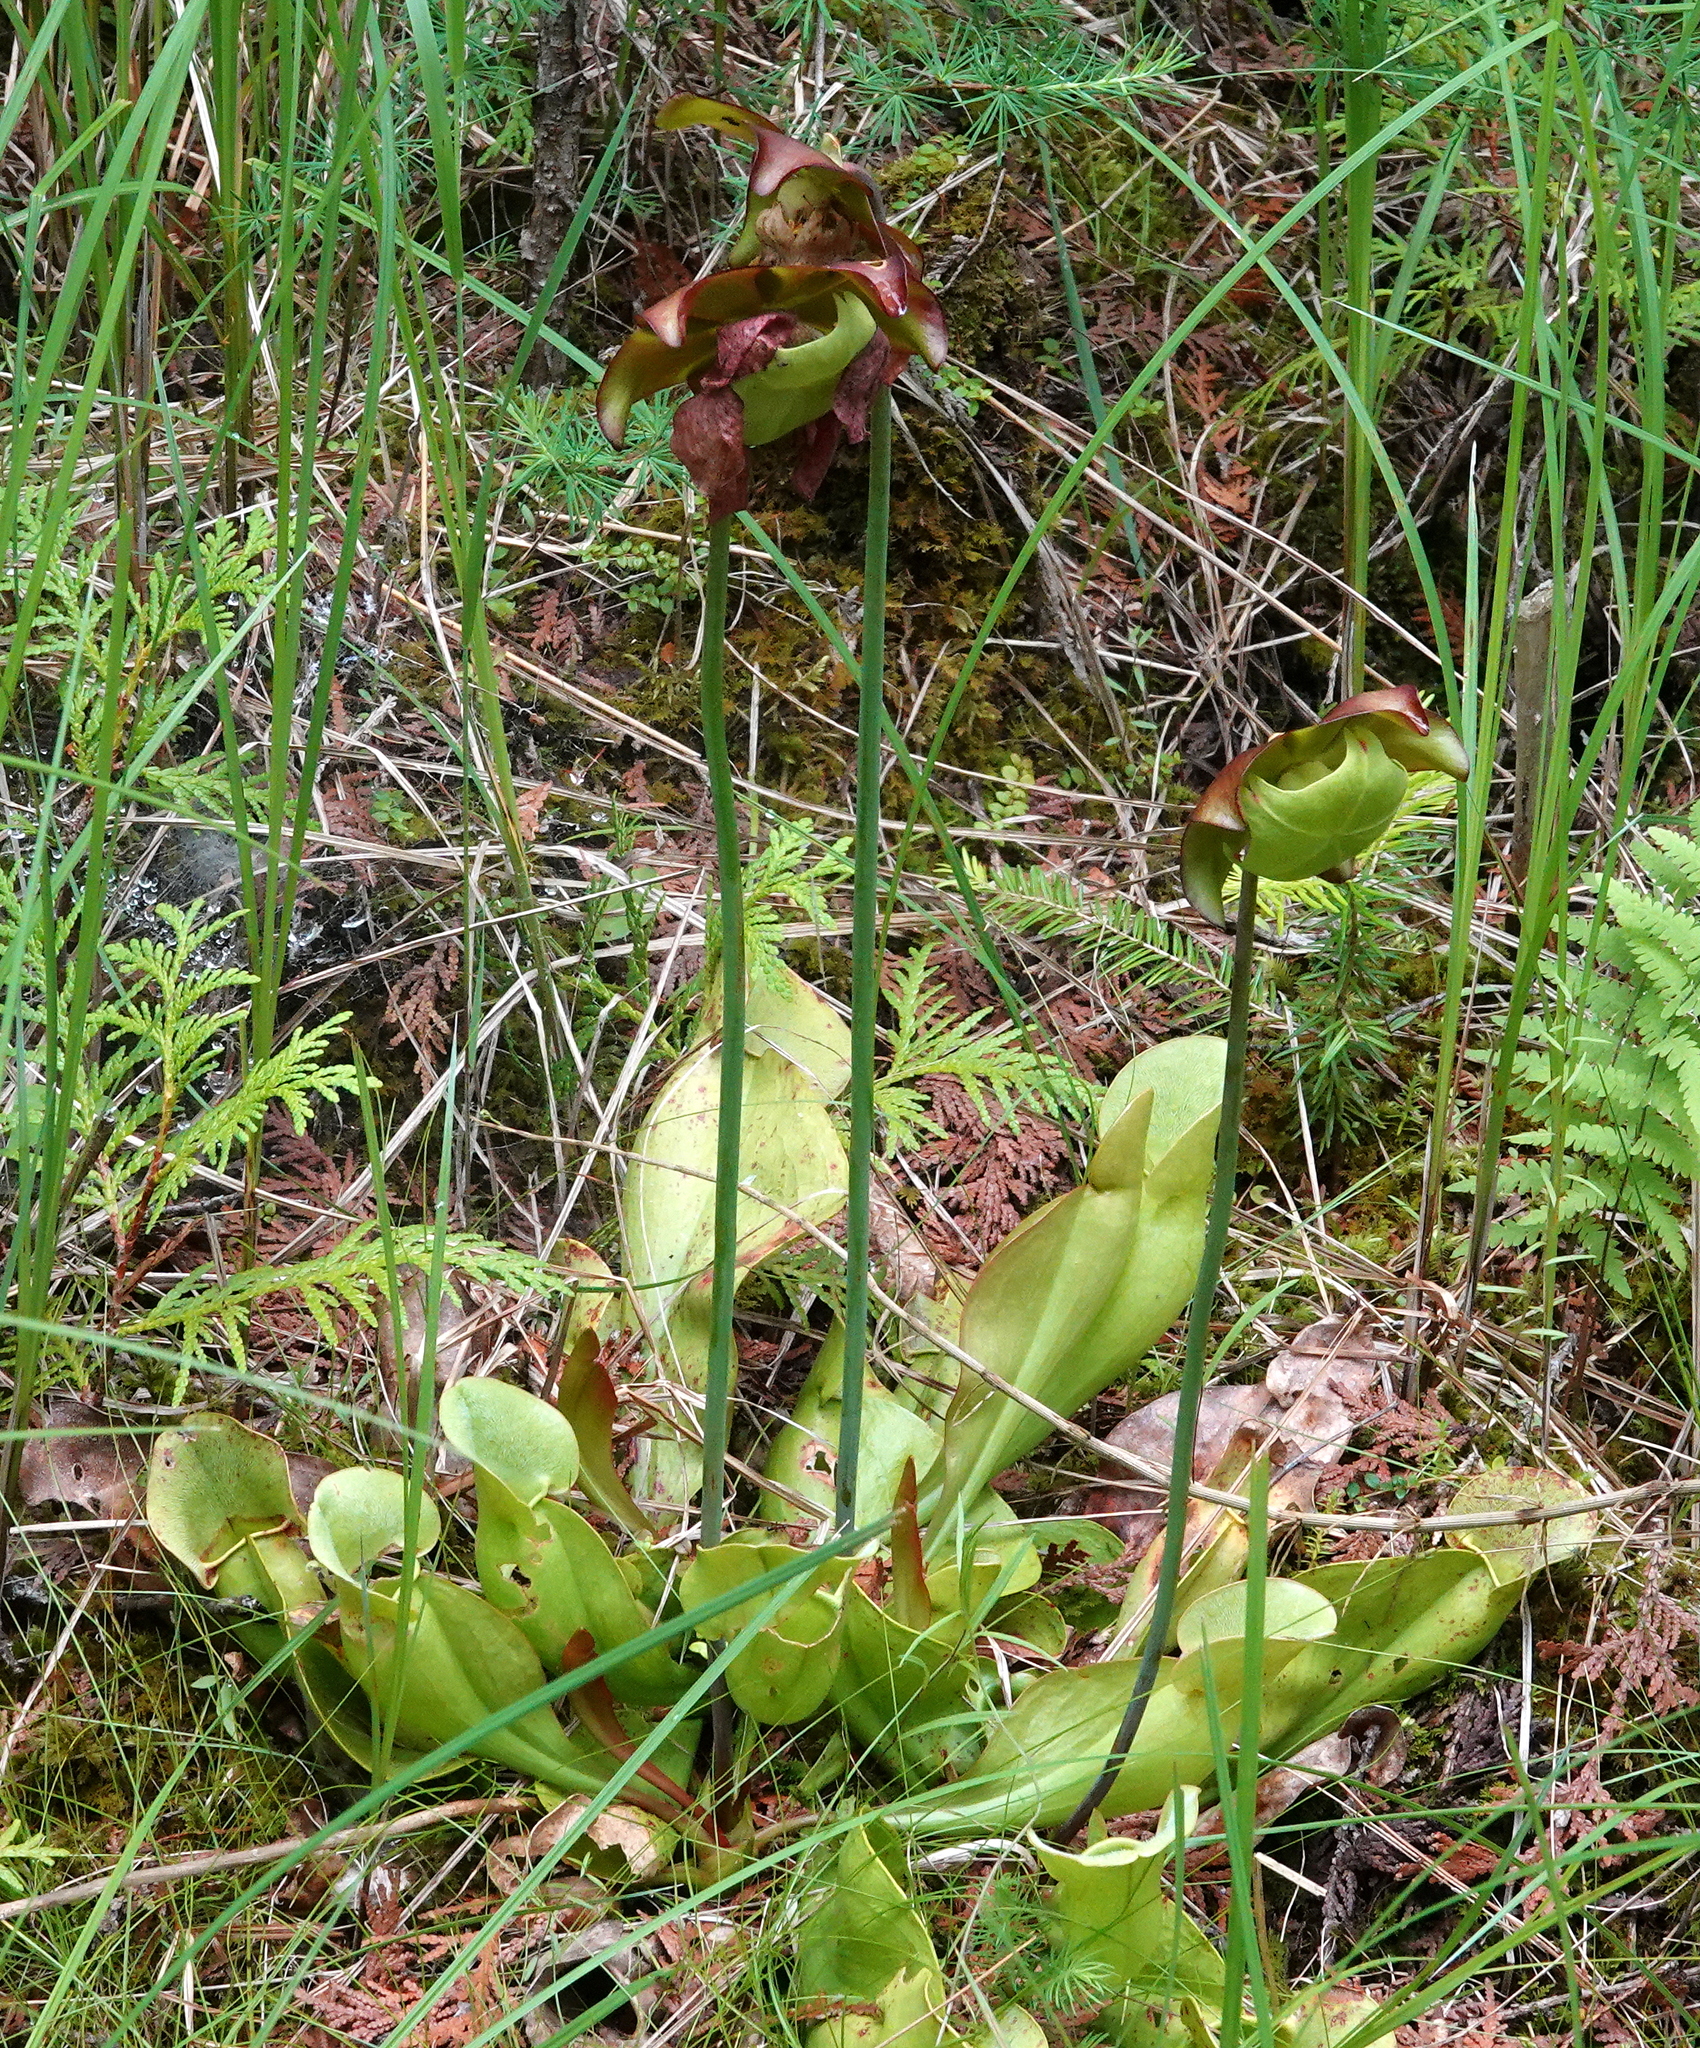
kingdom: Plantae
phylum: Tracheophyta
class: Magnoliopsida
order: Ericales
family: Sarraceniaceae
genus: Sarracenia
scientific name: Sarracenia purpurea
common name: Pitcherplant
